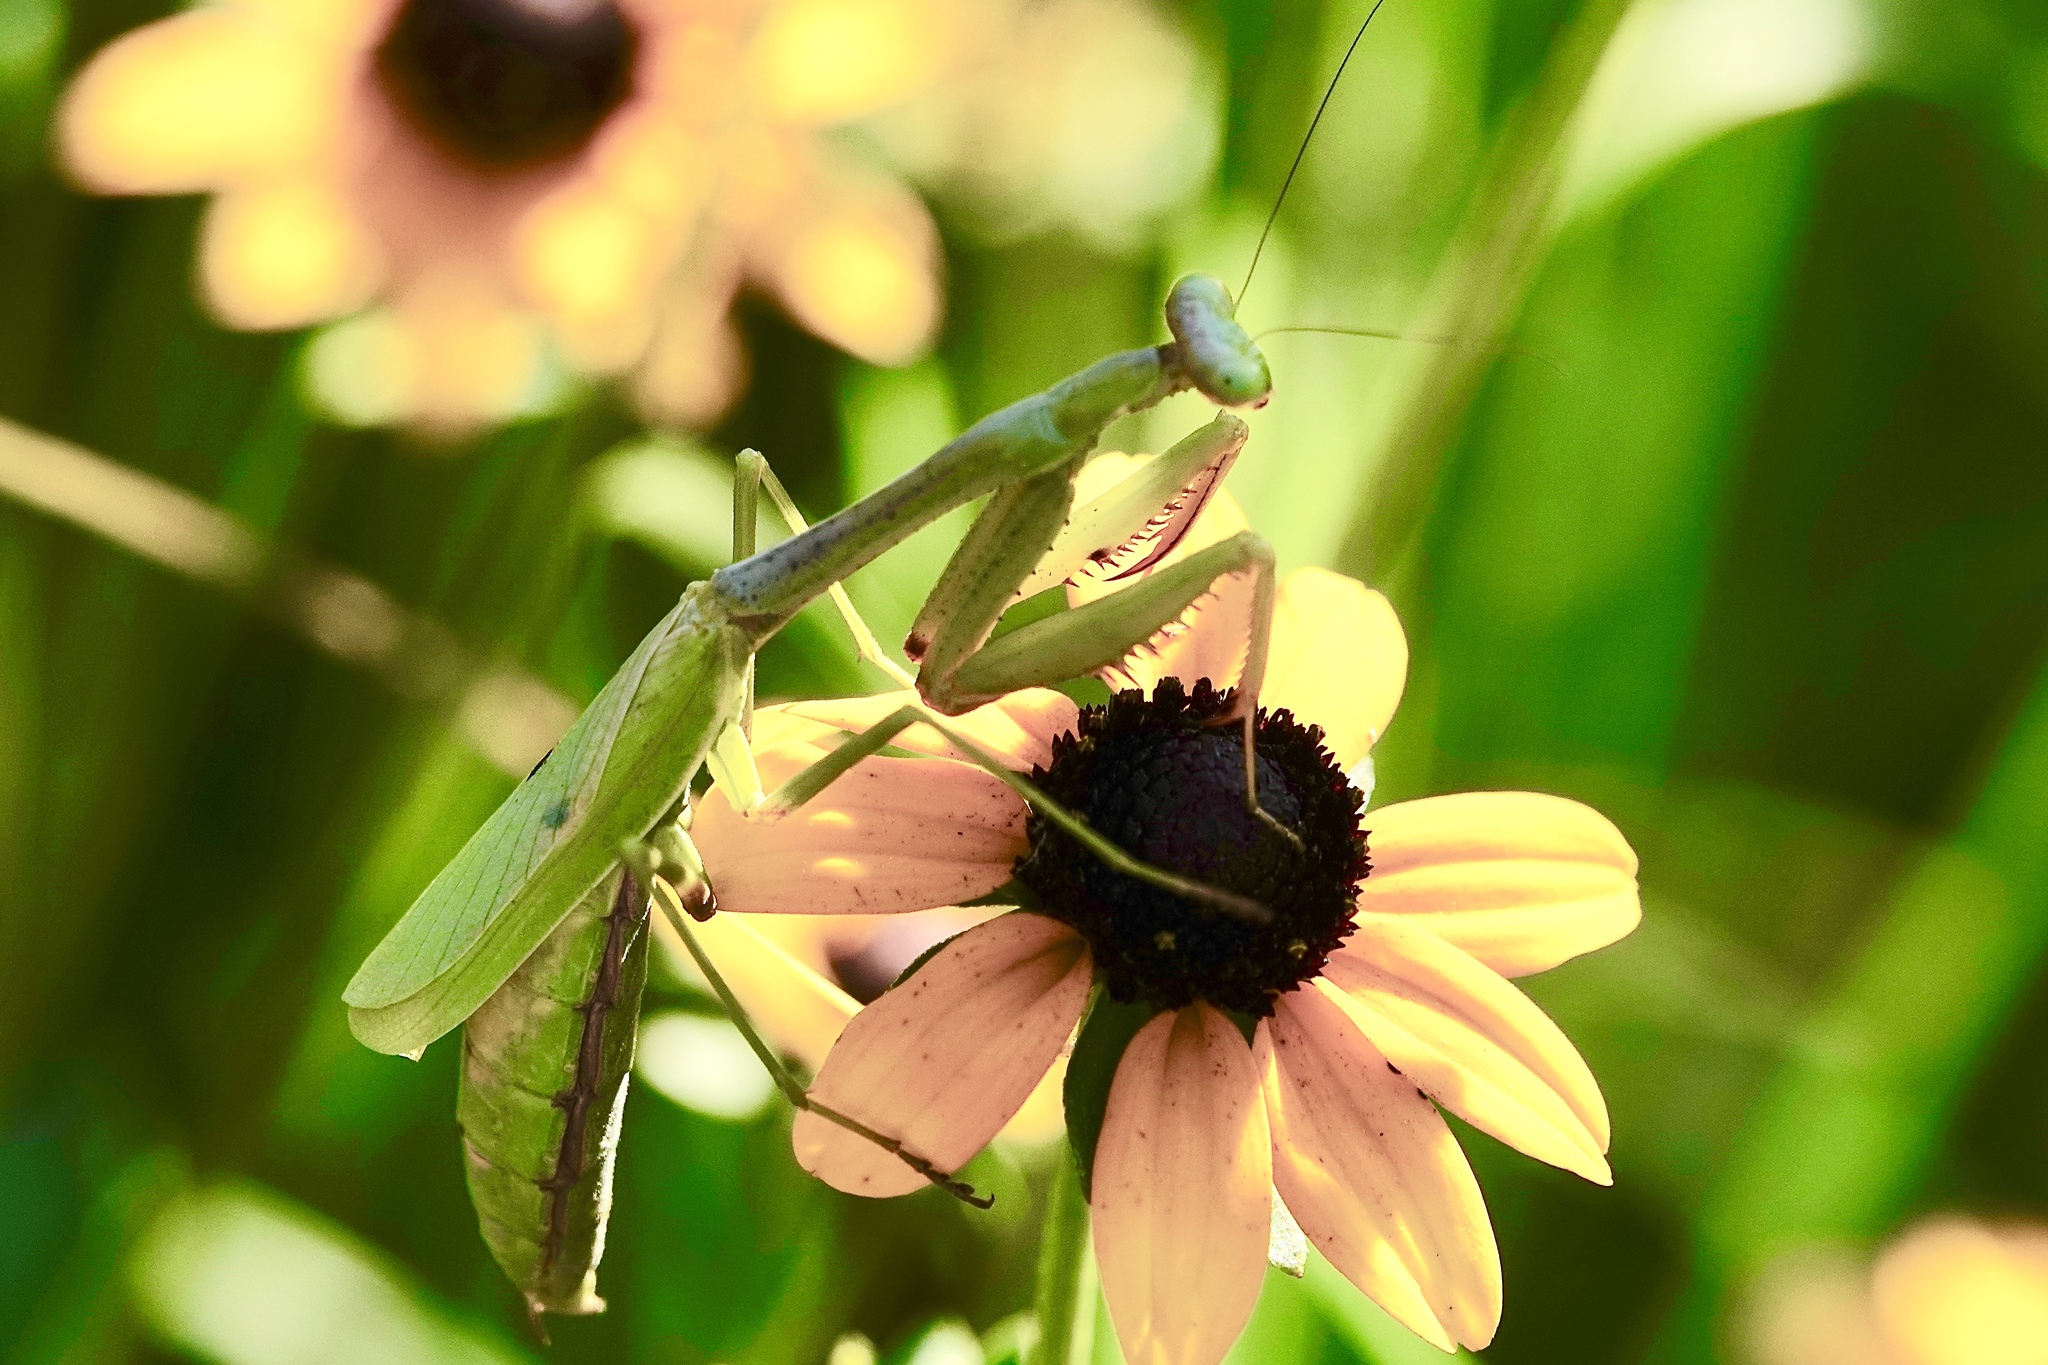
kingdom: Animalia
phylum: Arthropoda
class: Insecta
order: Mantodea
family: Mantidae
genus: Stagmomantis
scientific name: Stagmomantis carolina
